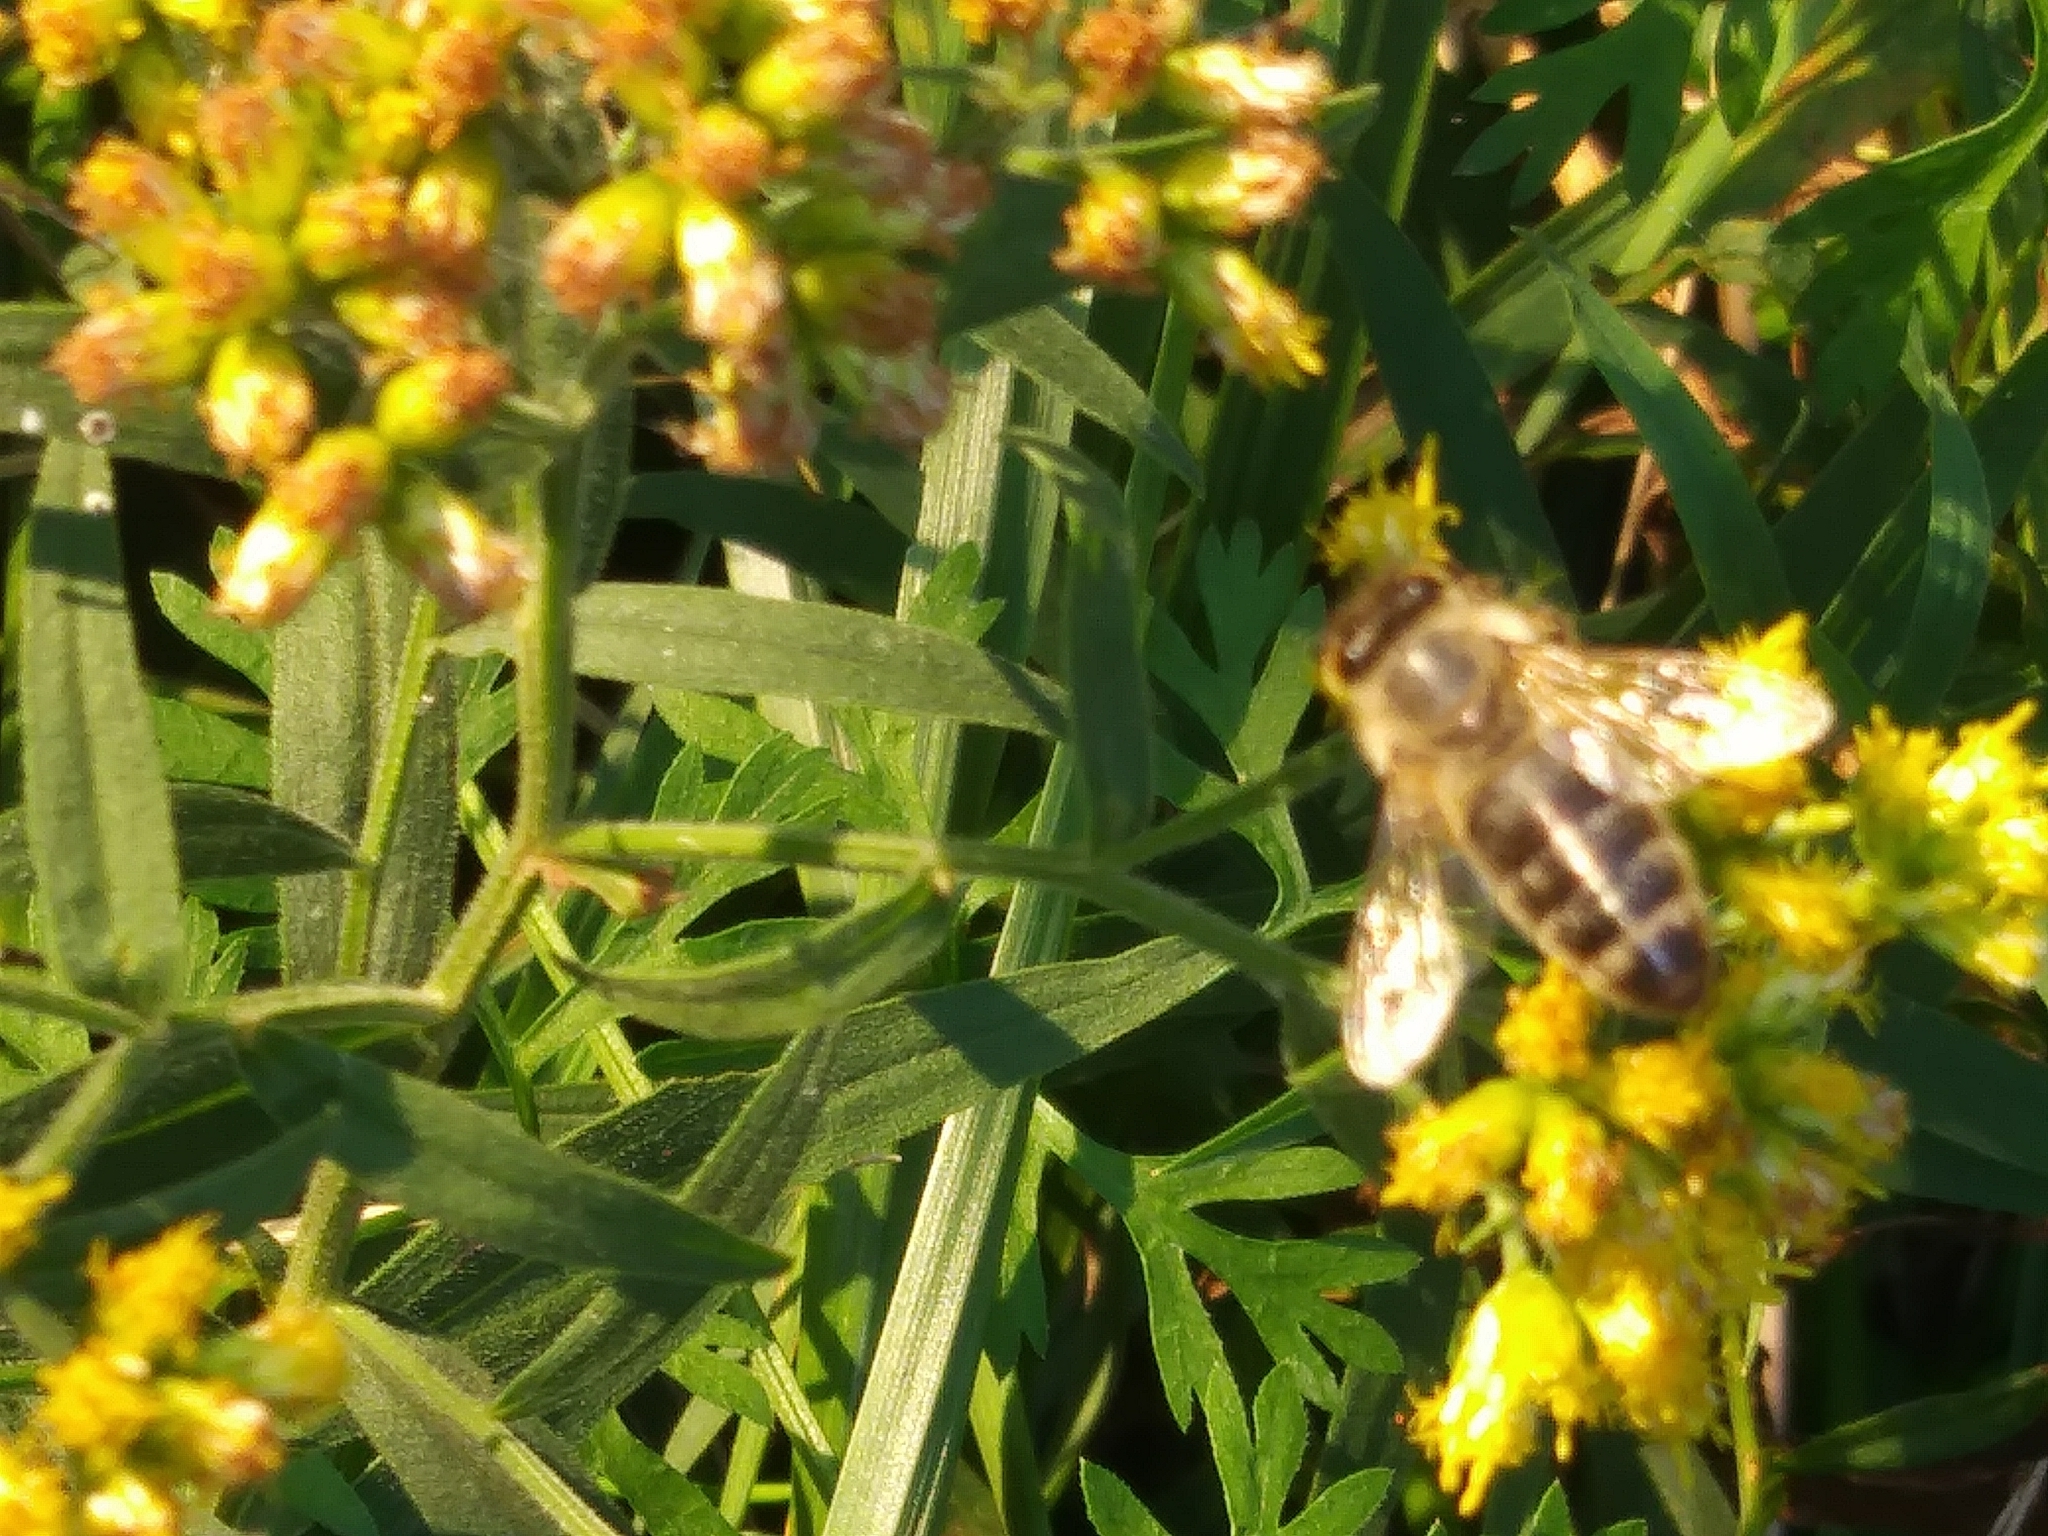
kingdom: Animalia
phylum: Arthropoda
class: Insecta
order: Hymenoptera
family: Apidae
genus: Apis
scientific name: Apis mellifera
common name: Honey bee
